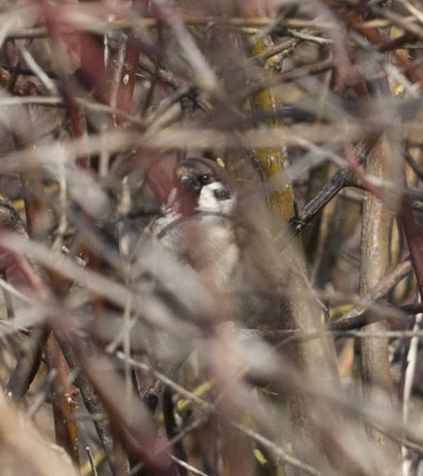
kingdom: Animalia
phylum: Chordata
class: Aves
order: Passeriformes
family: Passeridae
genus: Passer
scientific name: Passer montanus
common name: Eurasian tree sparrow
